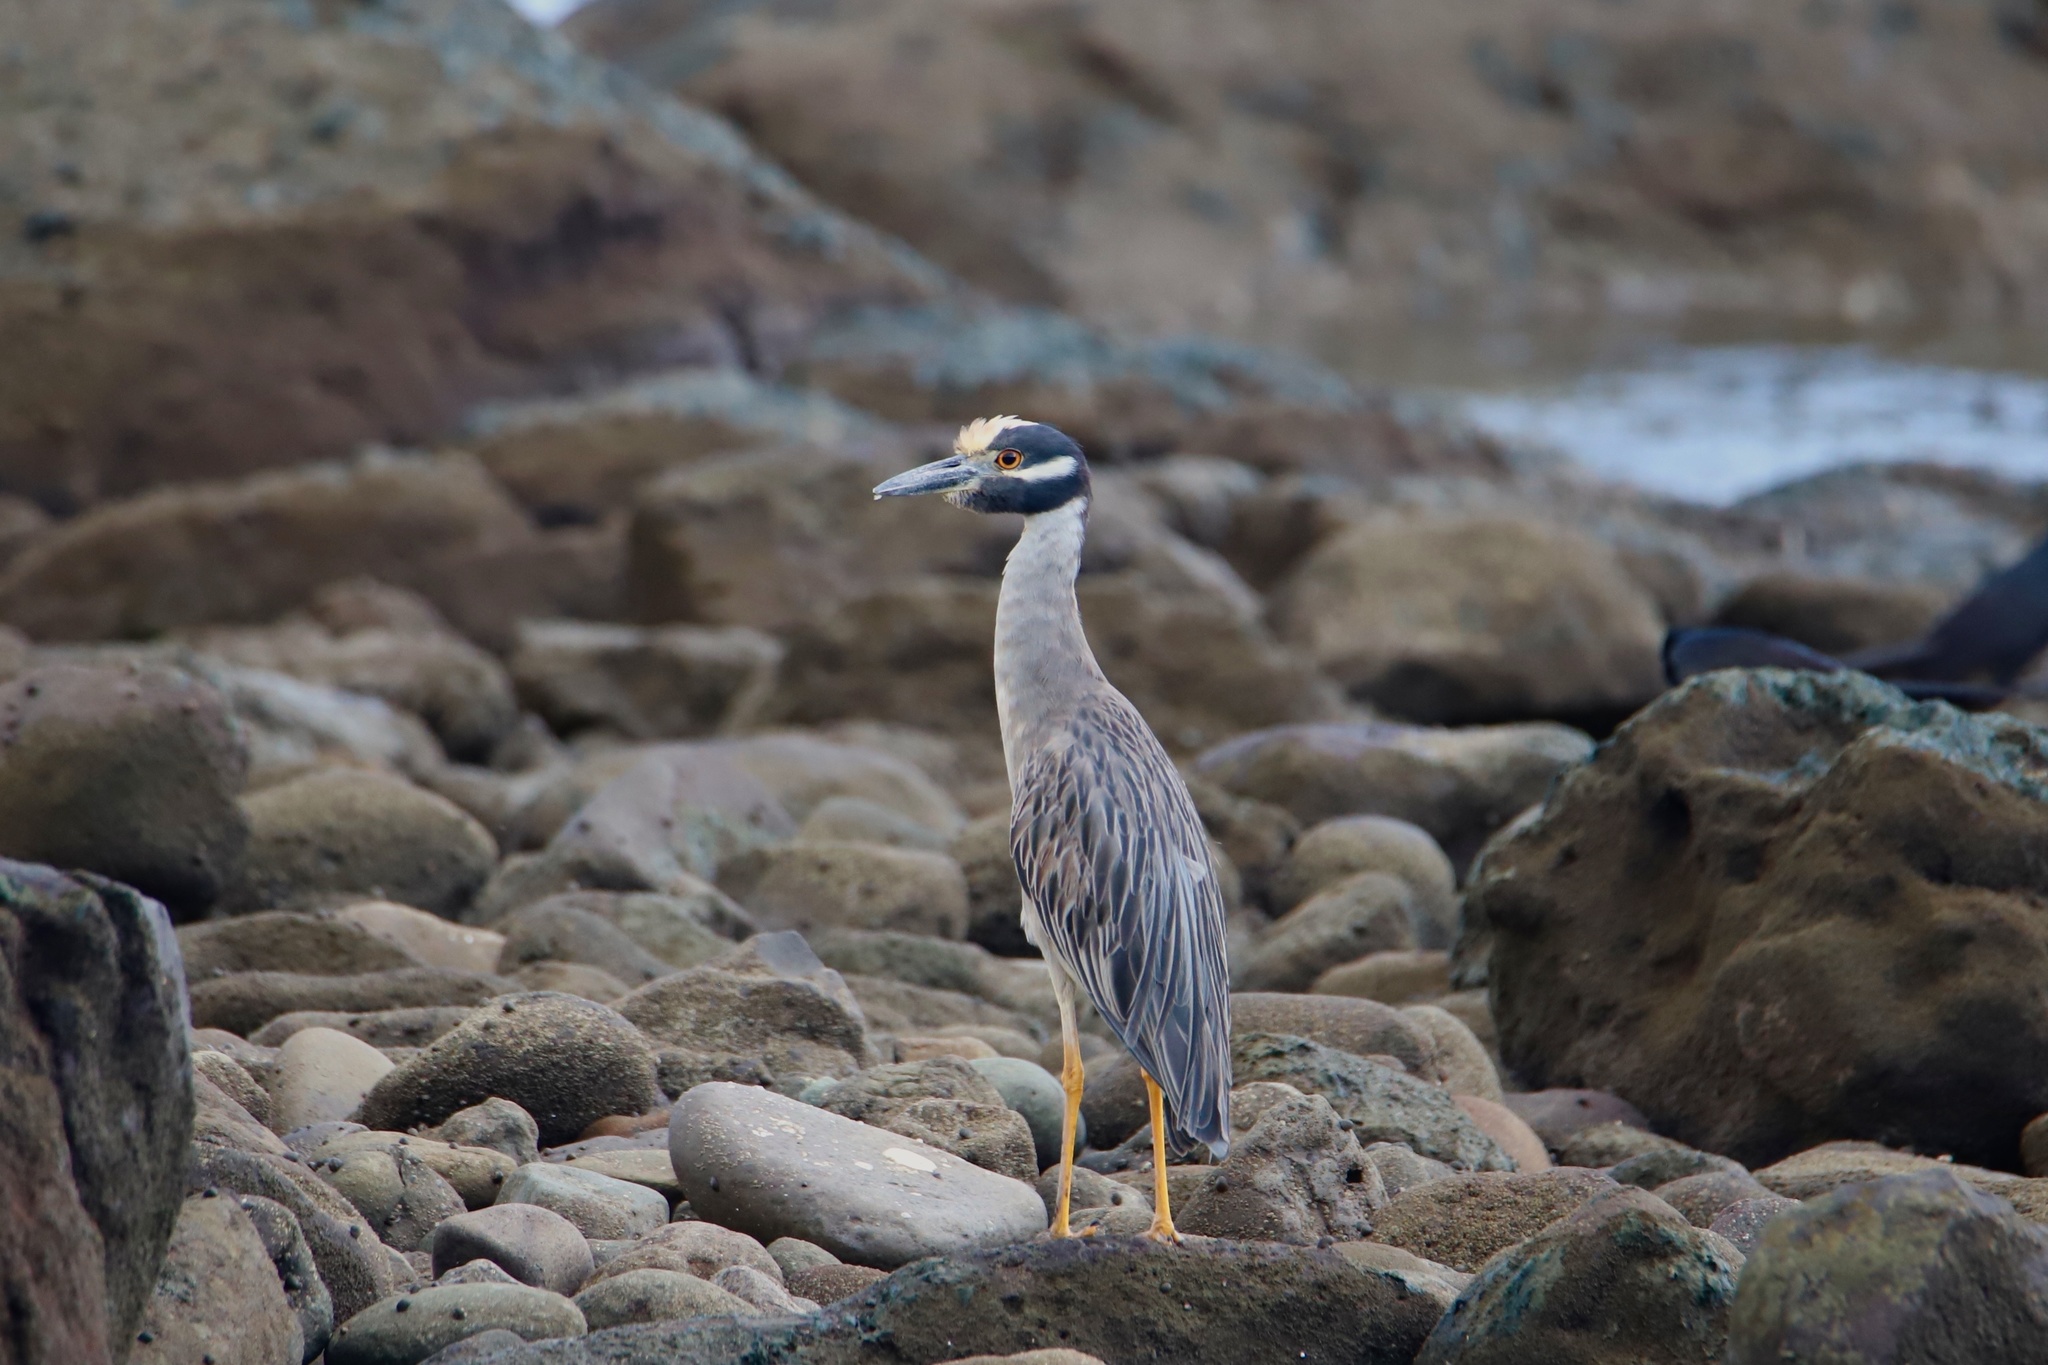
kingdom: Animalia
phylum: Chordata
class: Aves
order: Pelecaniformes
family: Ardeidae
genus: Nyctanassa
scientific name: Nyctanassa violacea
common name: Yellow-crowned night heron
